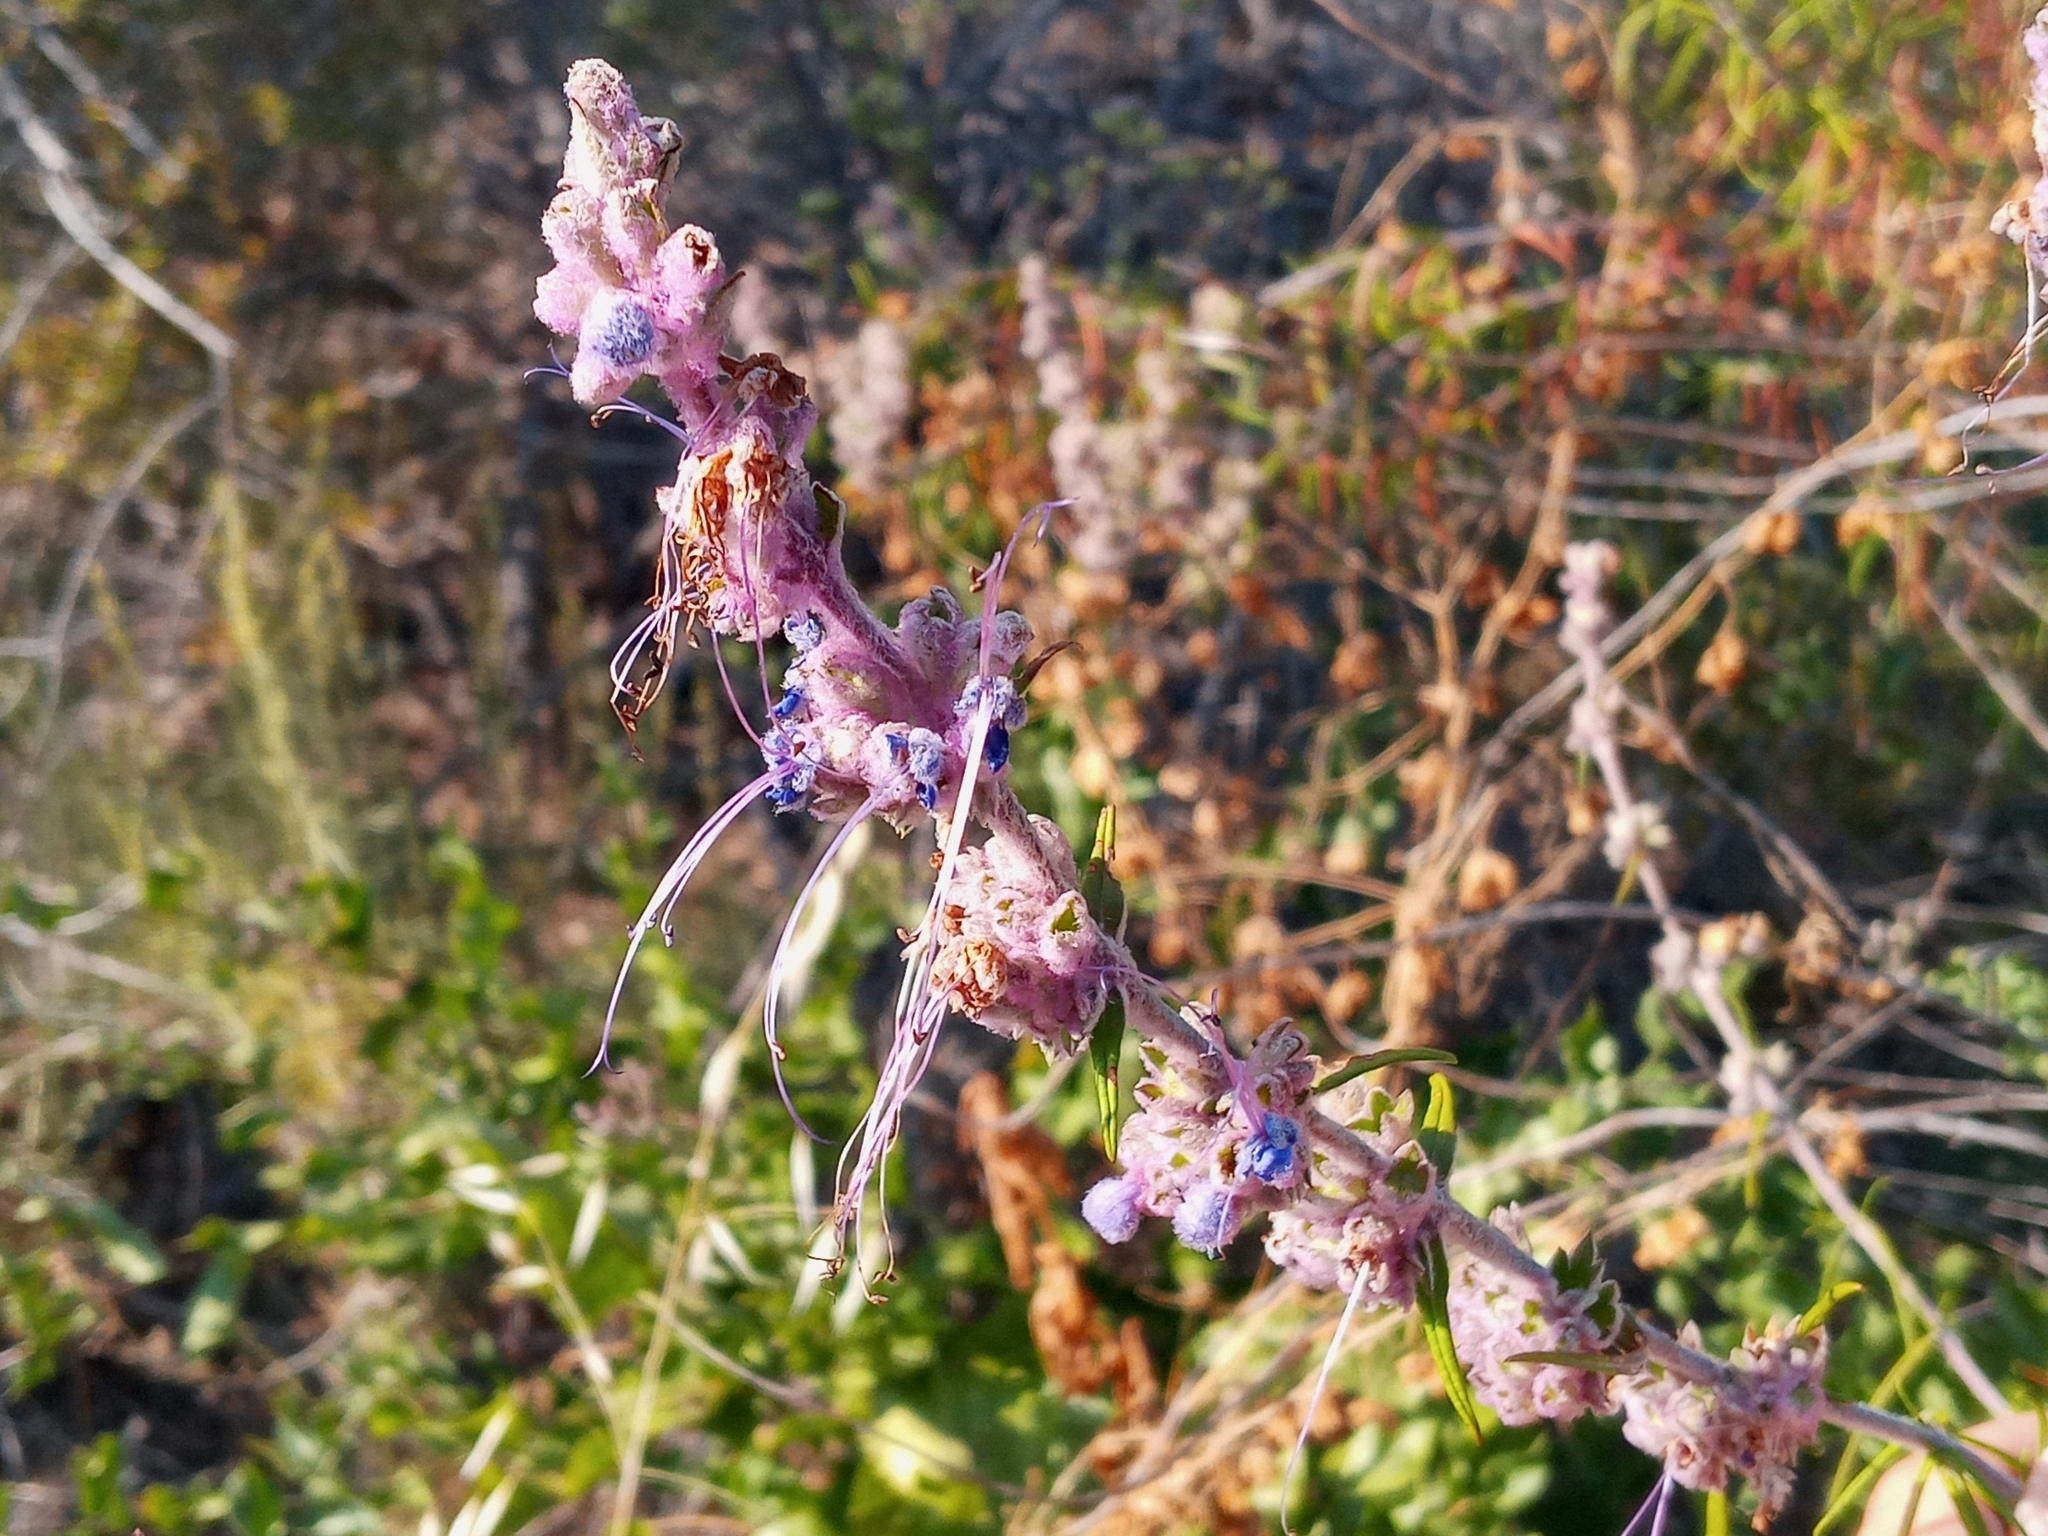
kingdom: Plantae
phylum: Tracheophyta
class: Magnoliopsida
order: Lamiales
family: Lamiaceae
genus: Trichostema
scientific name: Trichostema lanatum
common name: Woolly bluecurls
